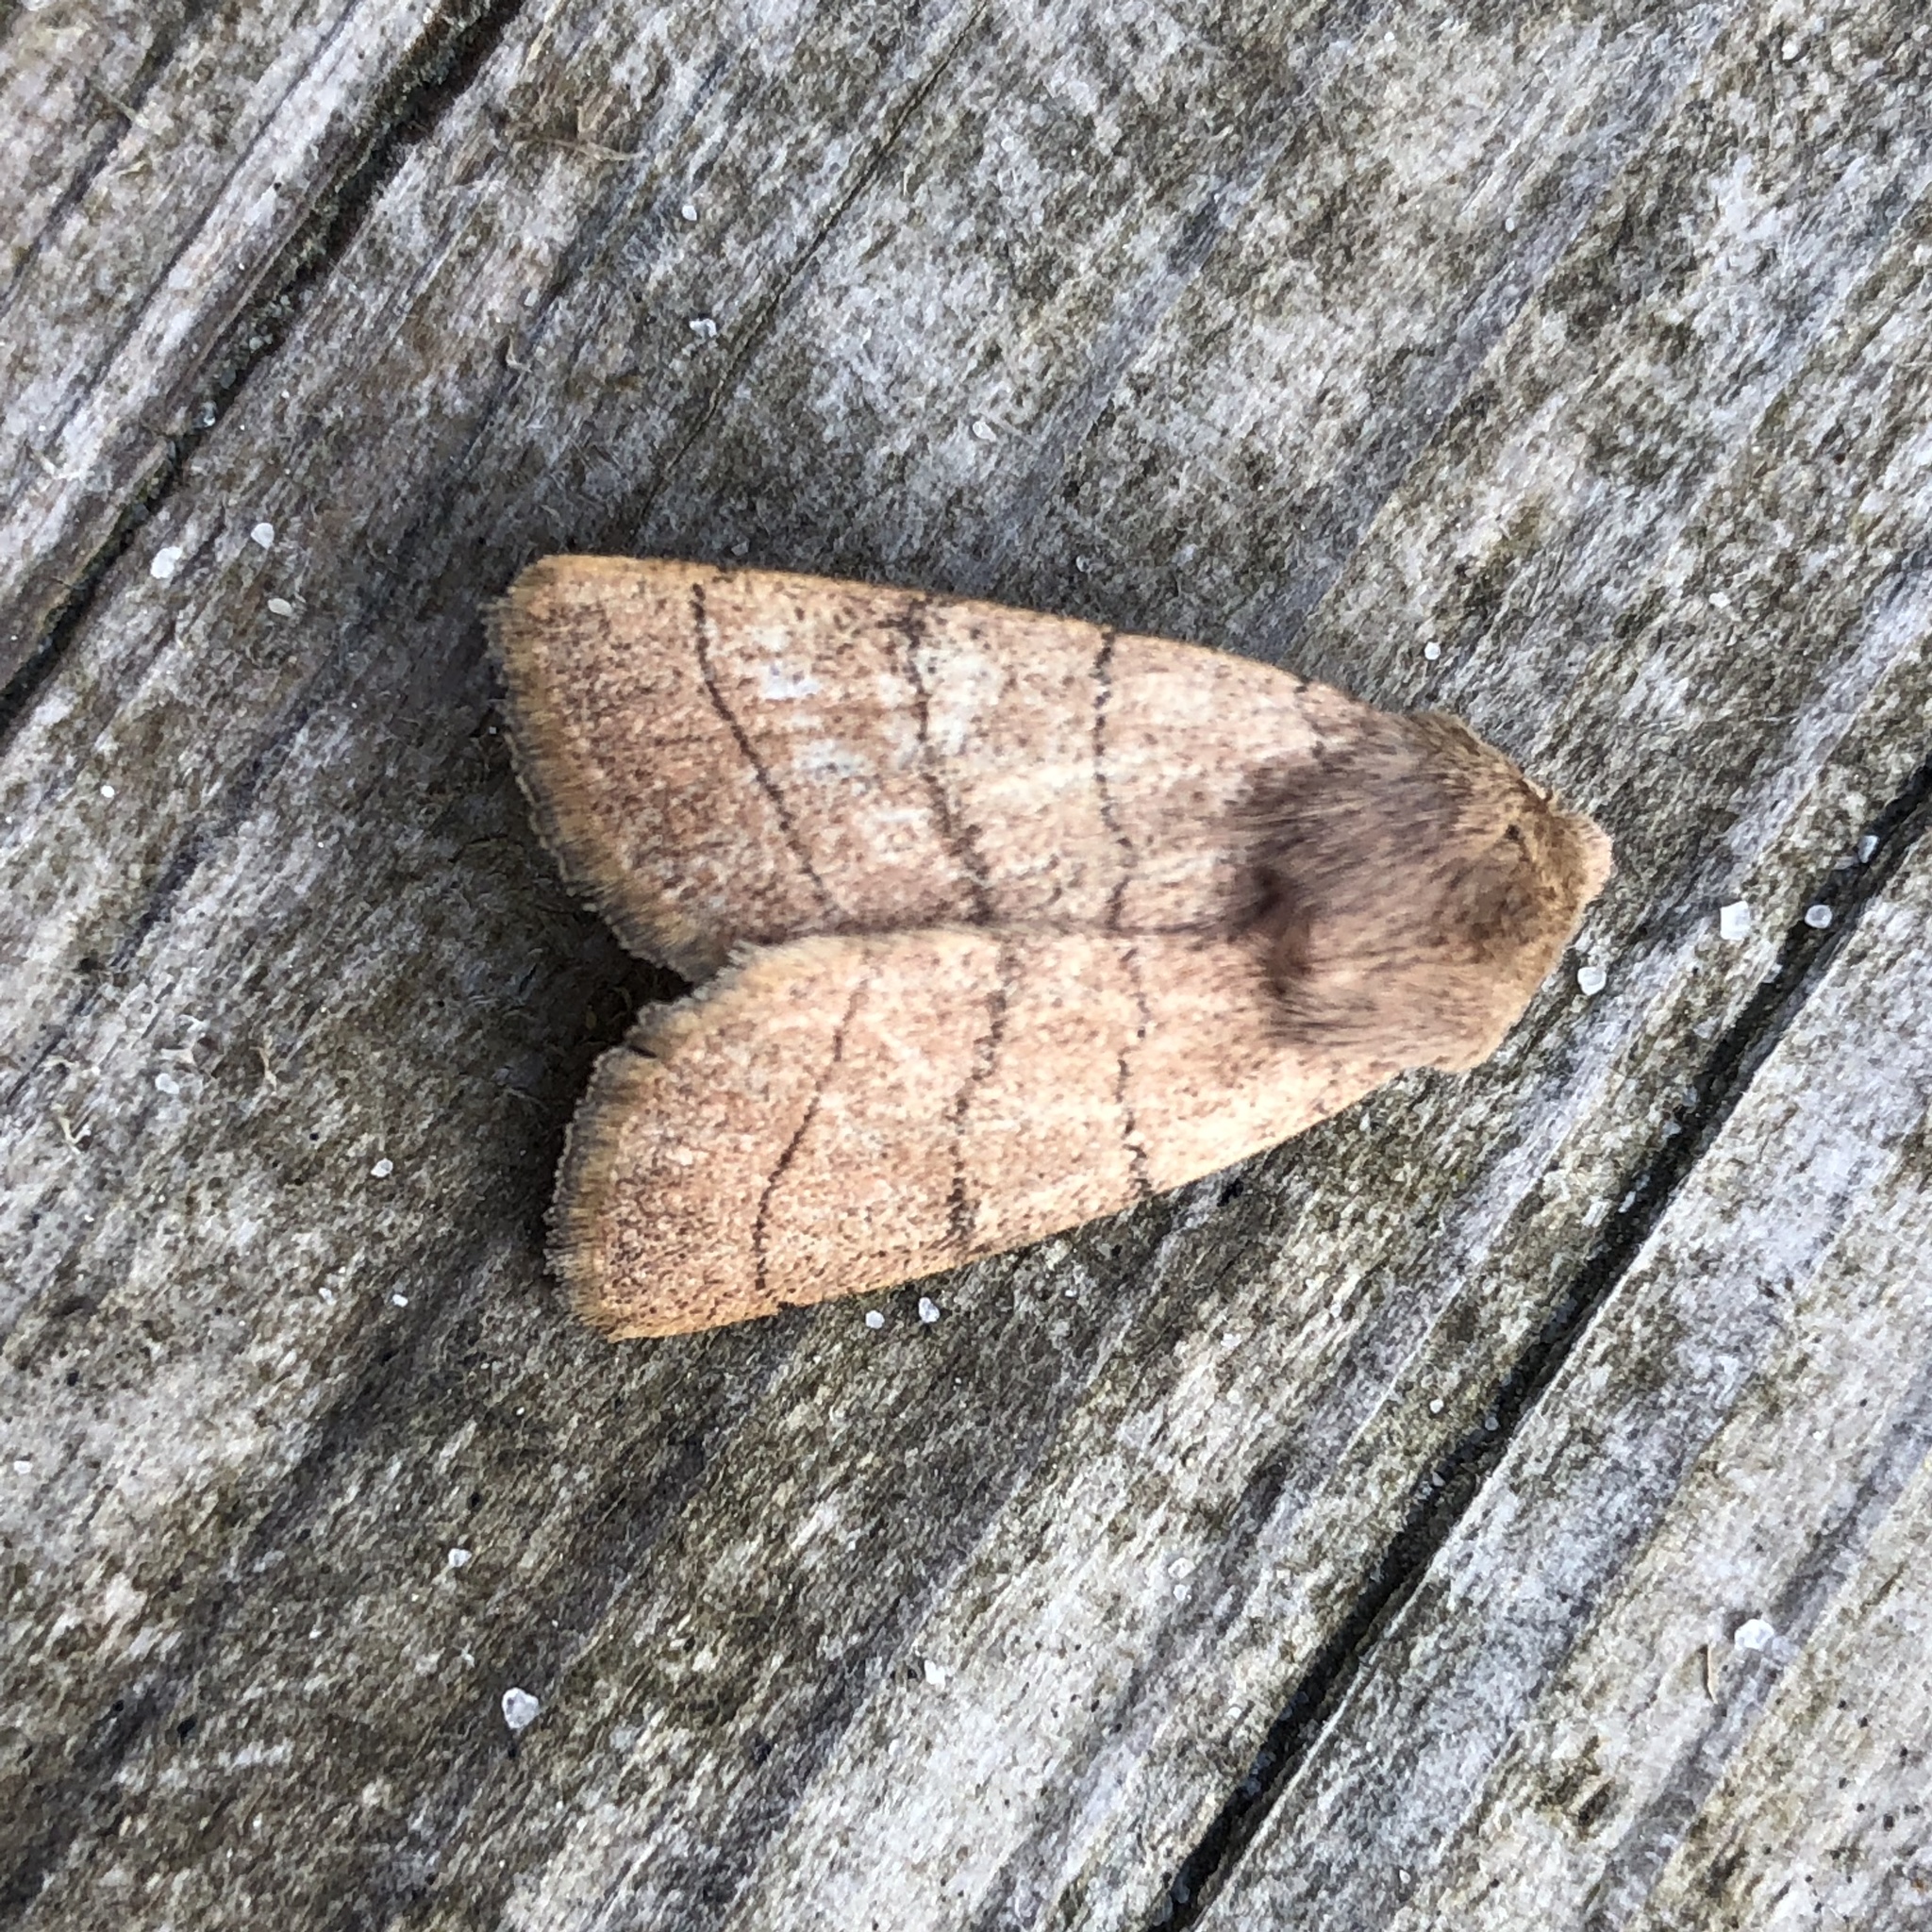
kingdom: Animalia
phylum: Arthropoda
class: Insecta
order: Lepidoptera
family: Noctuidae
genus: Charanyca
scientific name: Charanyca trigrammica
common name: Treble lines
